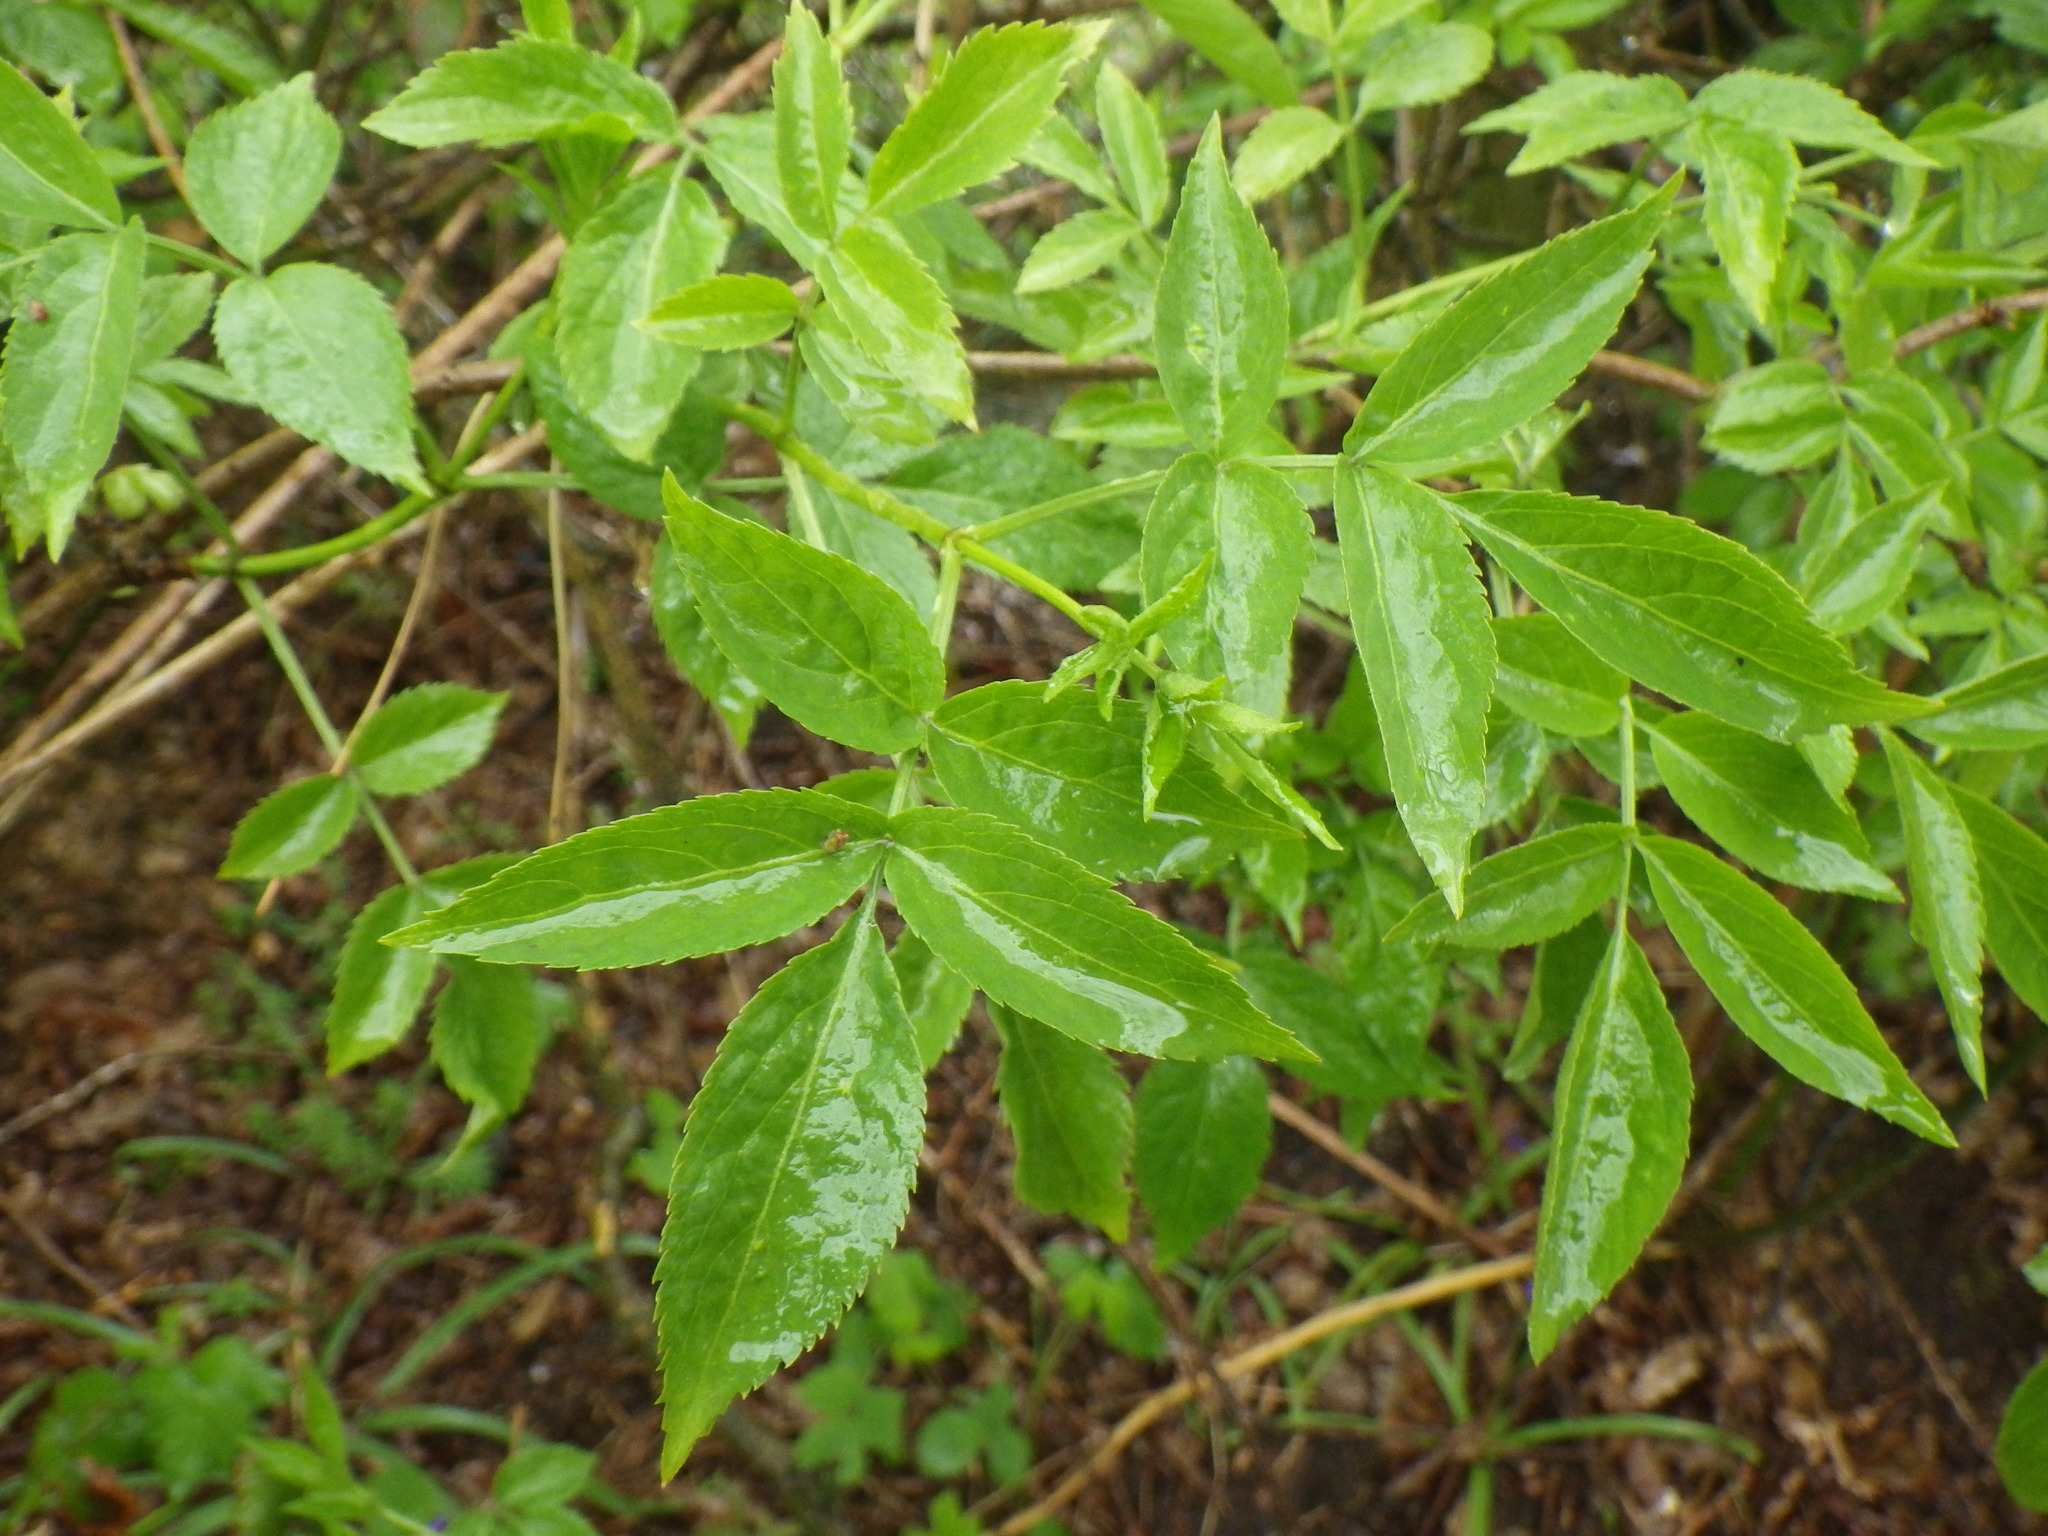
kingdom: Plantae
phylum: Tracheophyta
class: Magnoliopsida
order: Dipsacales
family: Viburnaceae
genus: Sambucus
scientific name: Sambucus nigra
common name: Elder
